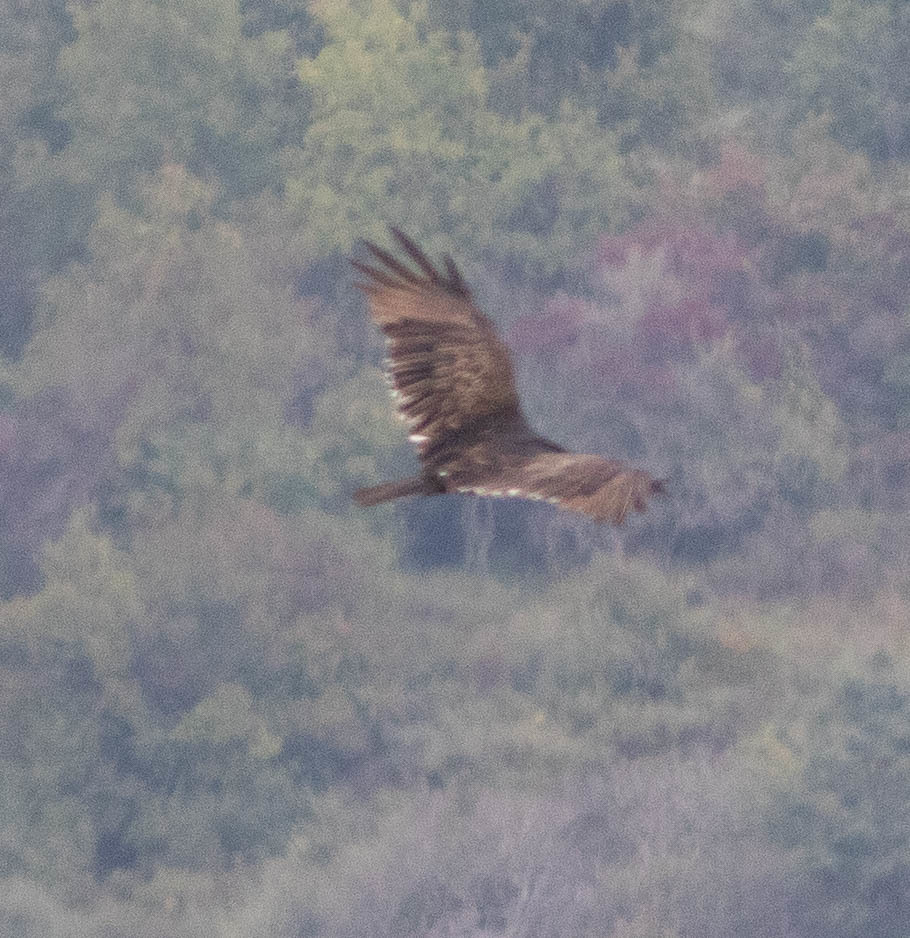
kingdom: Animalia
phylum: Chordata
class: Aves
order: Accipitriformes
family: Cathartidae
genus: Cathartes
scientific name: Cathartes aura
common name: Turkey vulture
